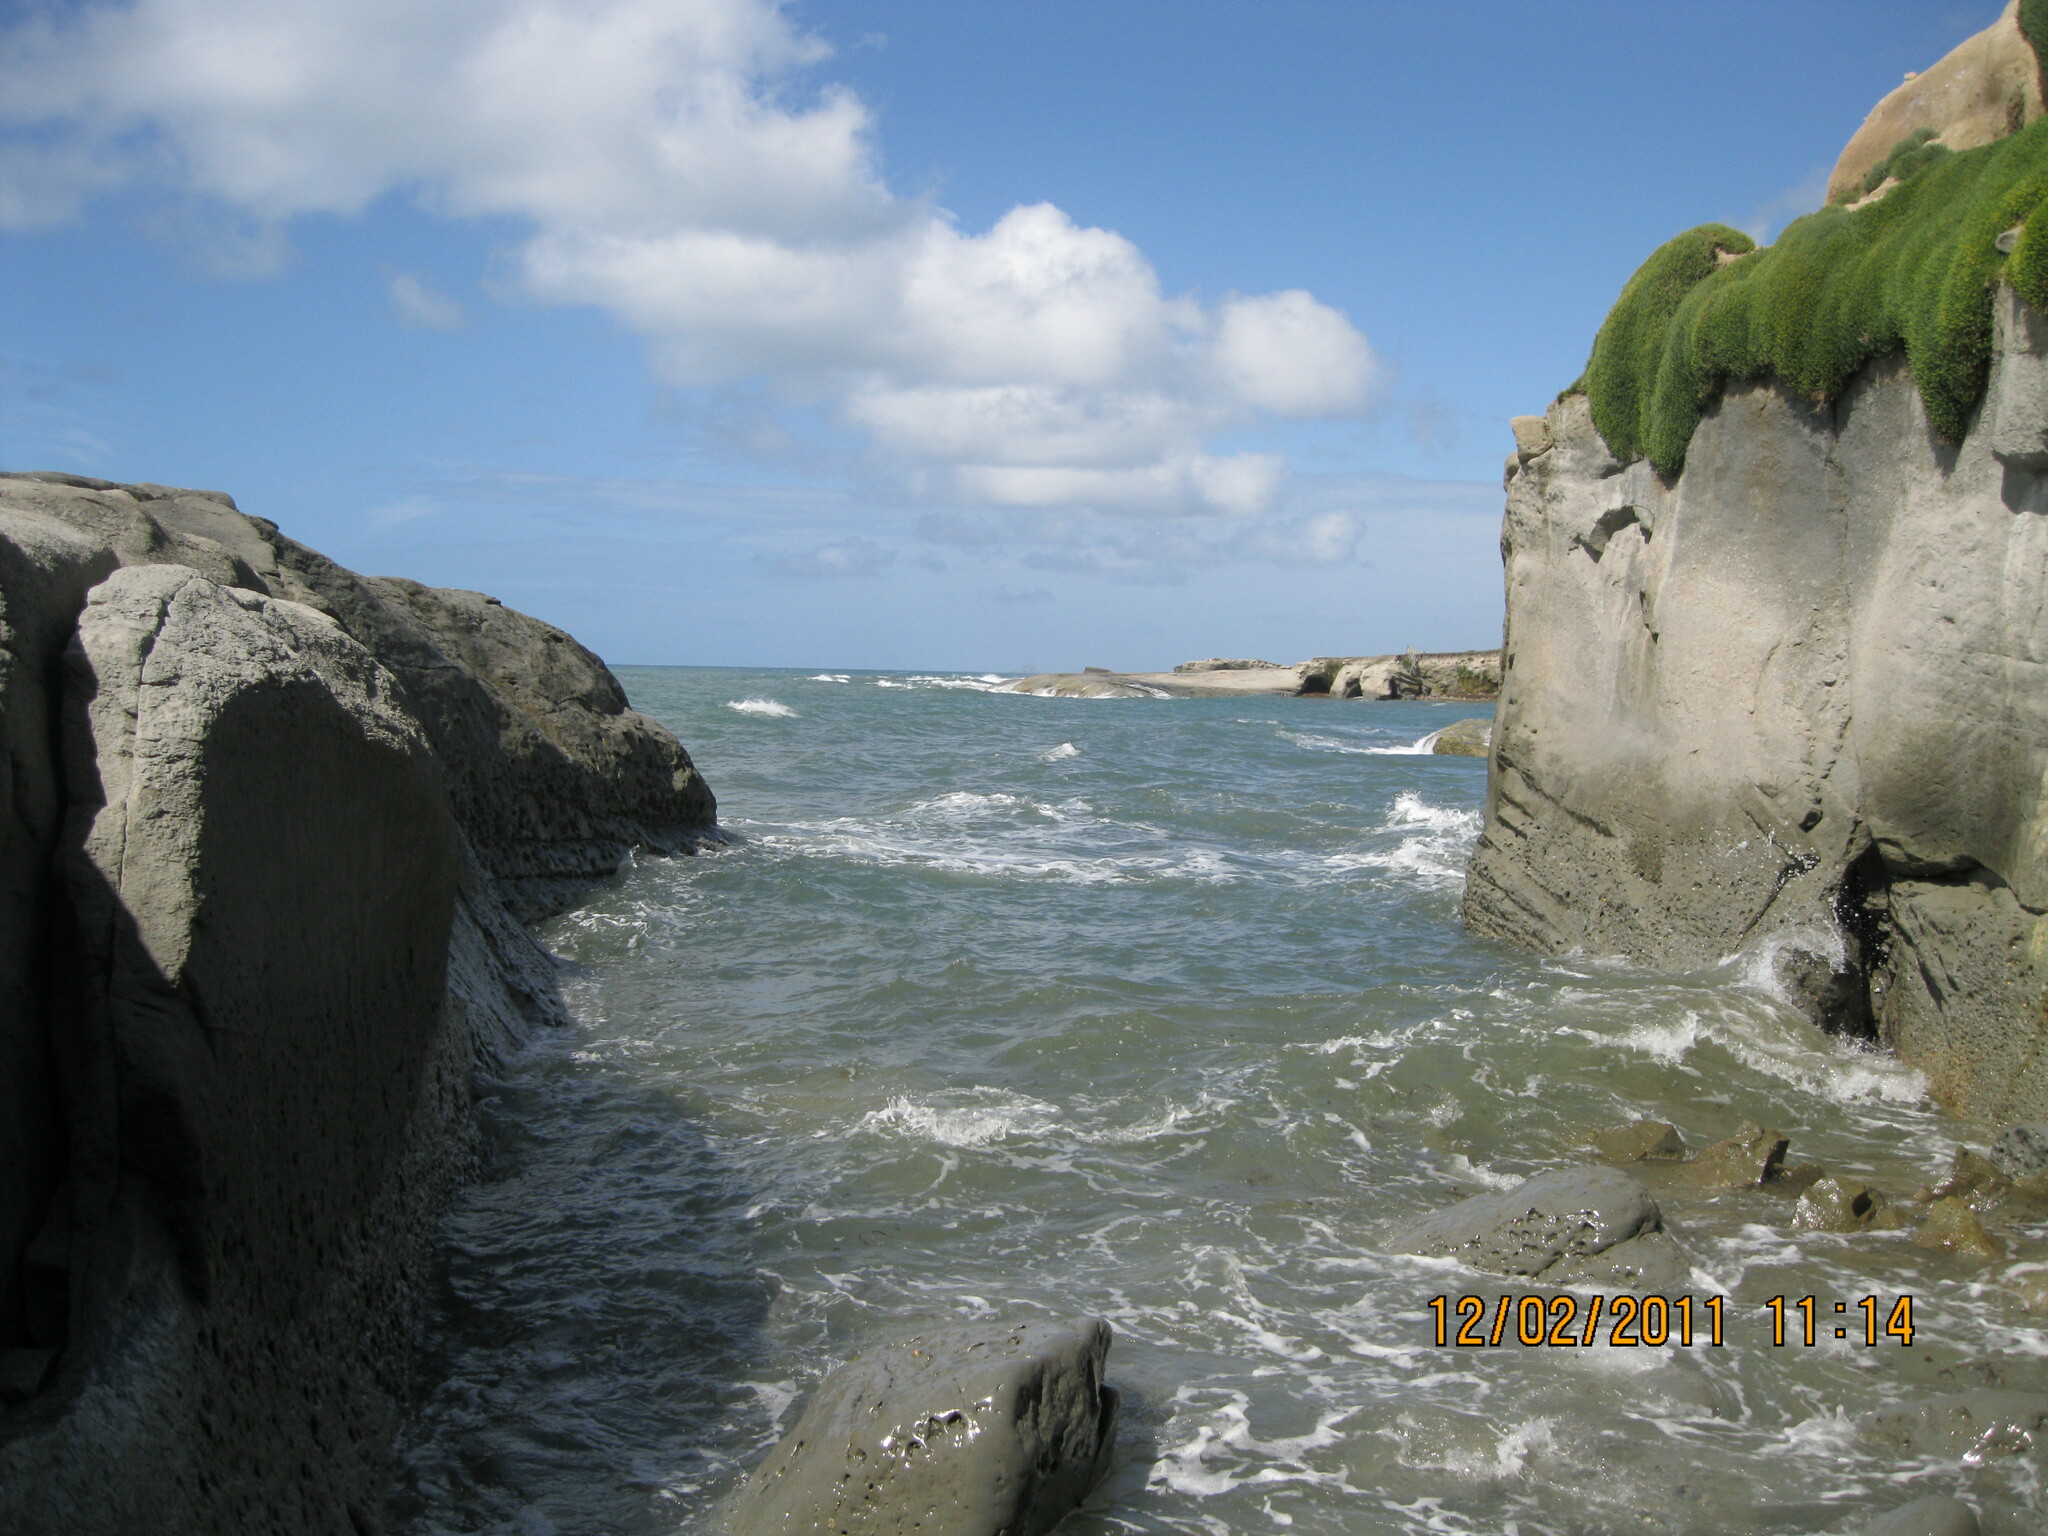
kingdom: Plantae
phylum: Tracheophyta
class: Magnoliopsida
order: Caryophyllales
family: Amaranthaceae
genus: Salicornia
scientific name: Salicornia quinqueflora
